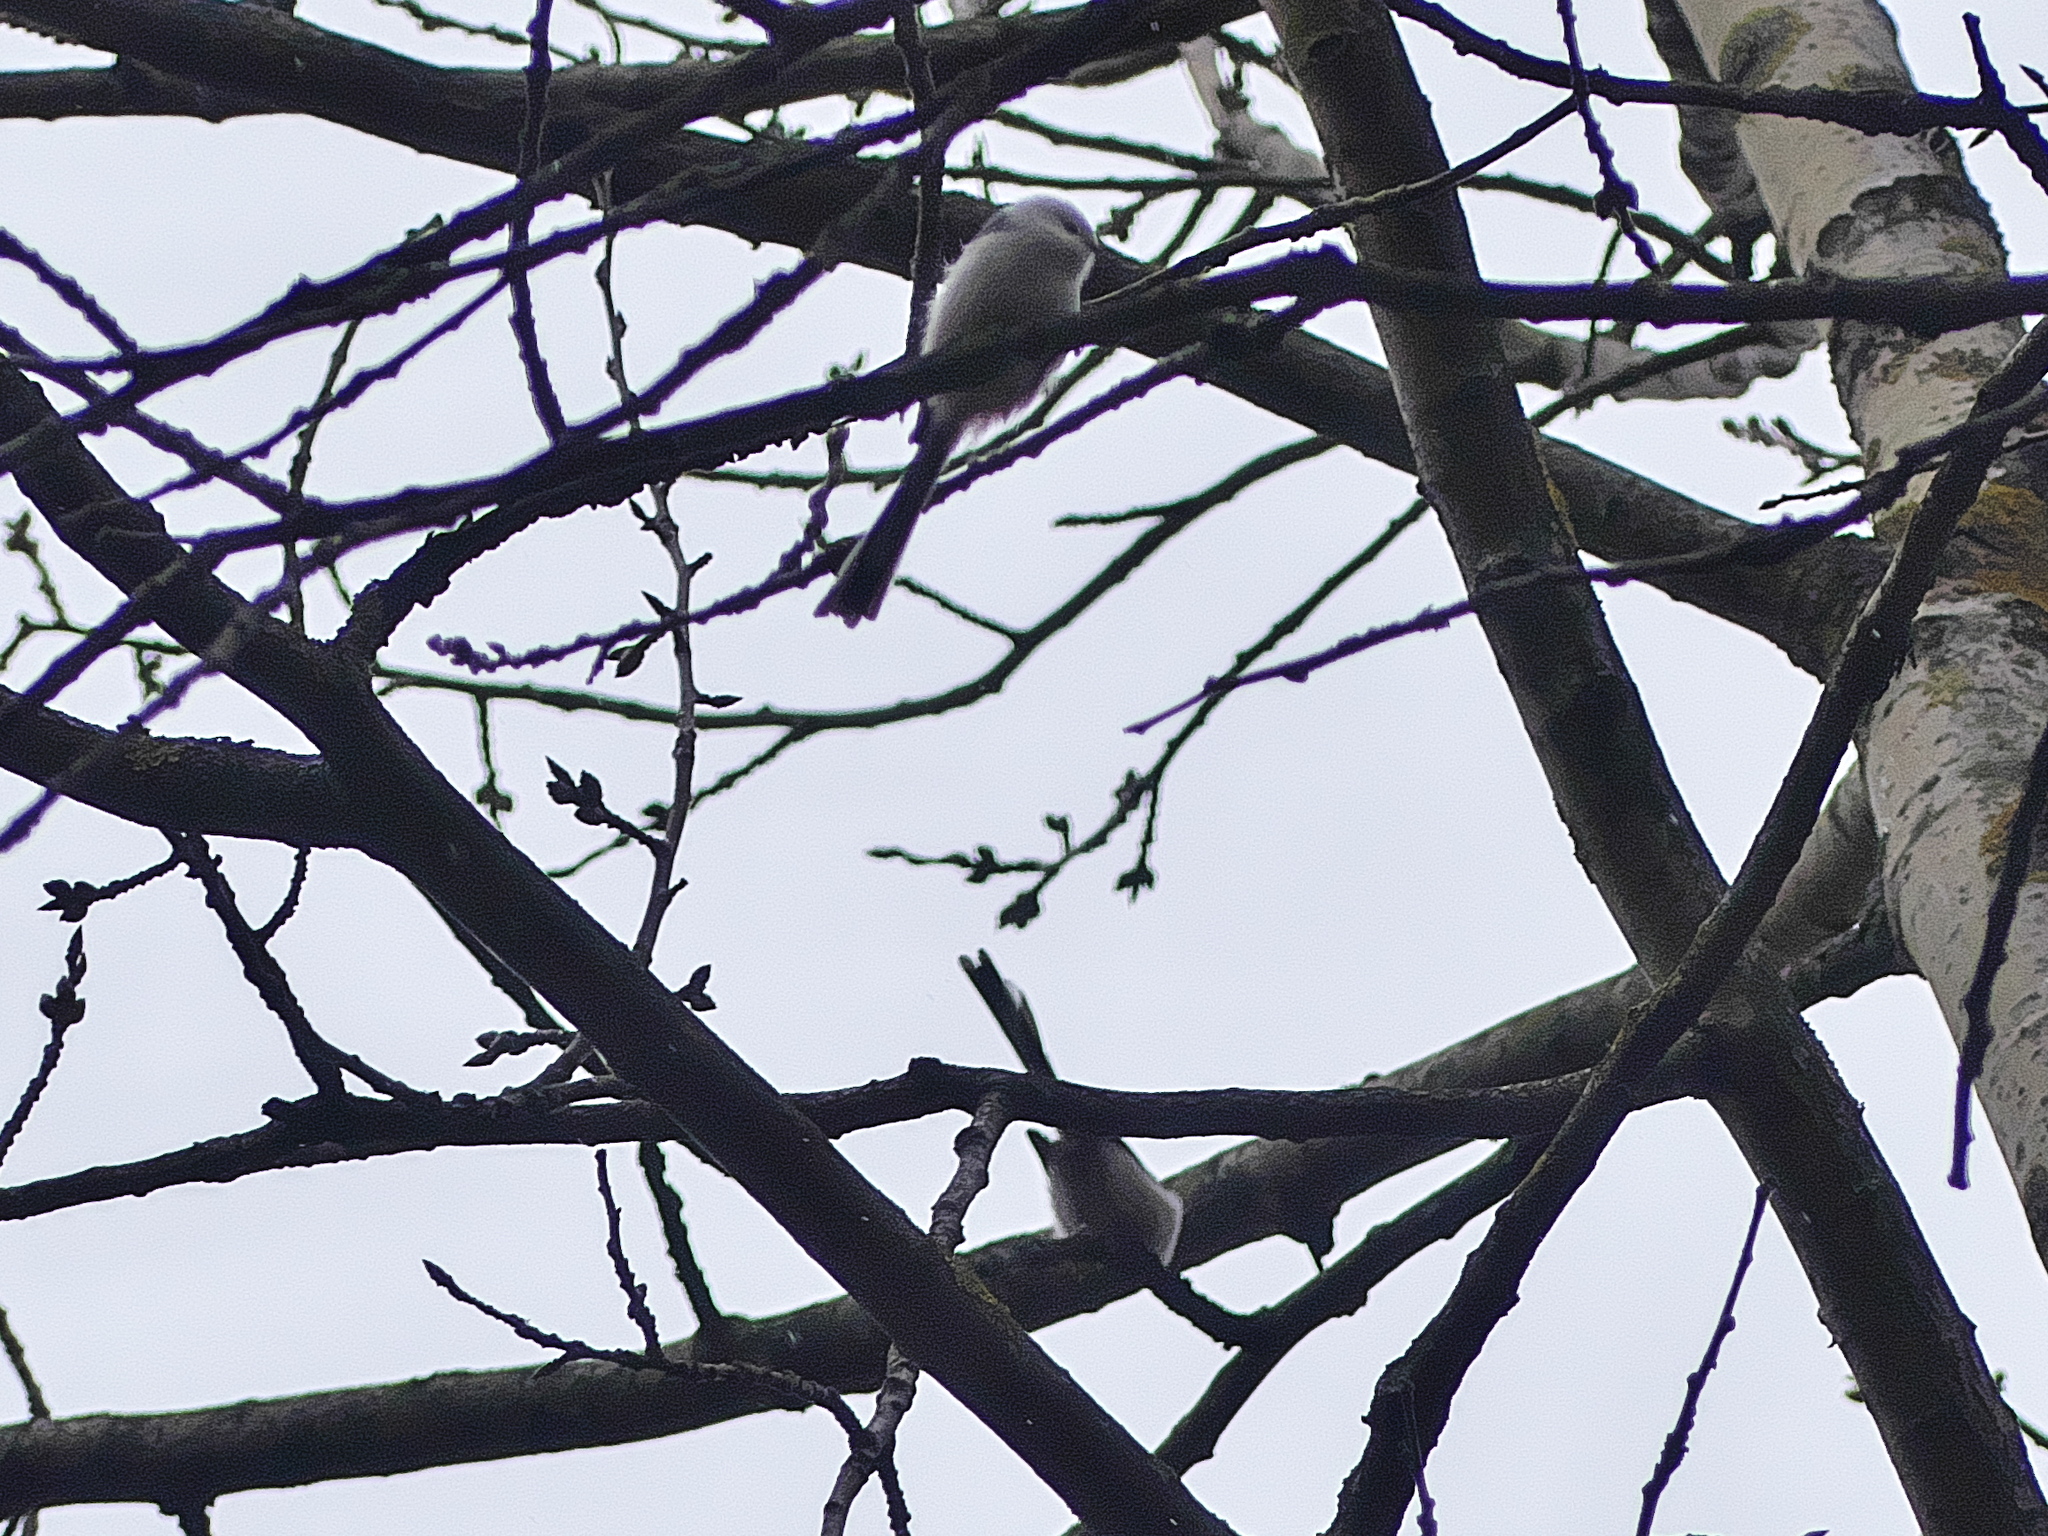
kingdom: Animalia
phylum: Chordata
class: Aves
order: Passeriformes
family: Aegithalidae
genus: Aegithalos
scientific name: Aegithalos caudatus
